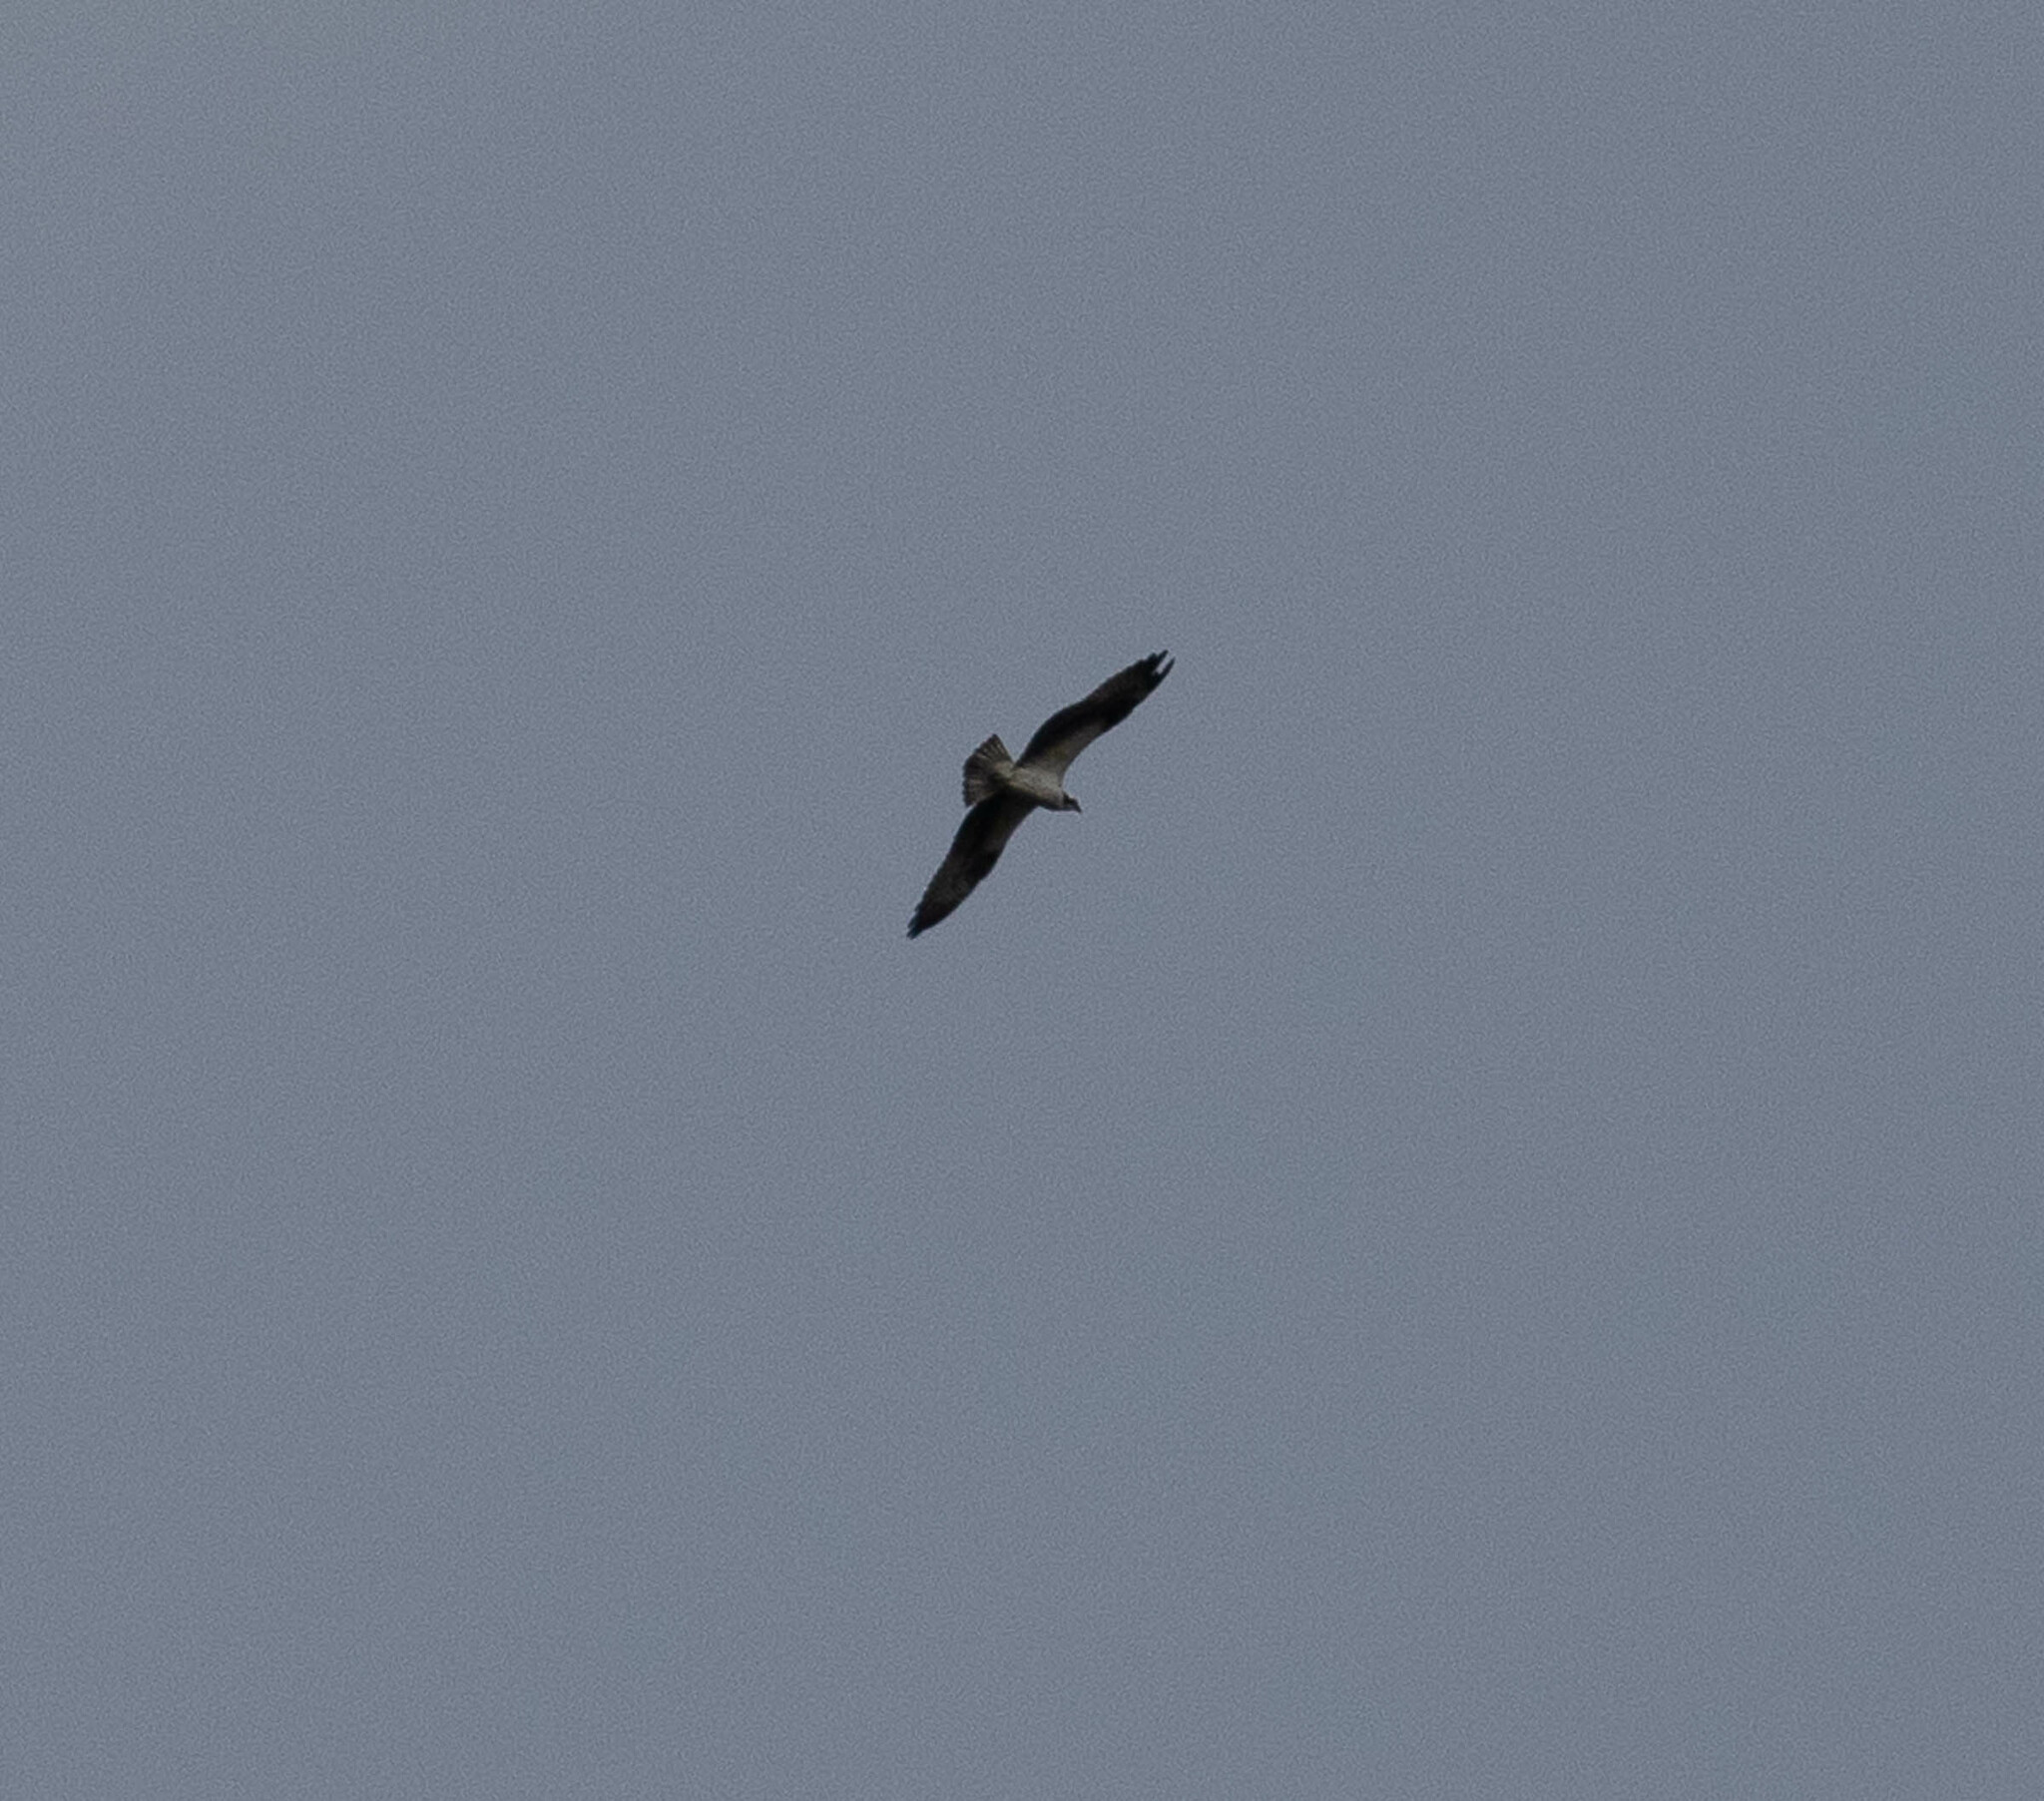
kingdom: Animalia
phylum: Chordata
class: Aves
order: Accipitriformes
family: Pandionidae
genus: Pandion
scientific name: Pandion haliaetus
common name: Osprey
